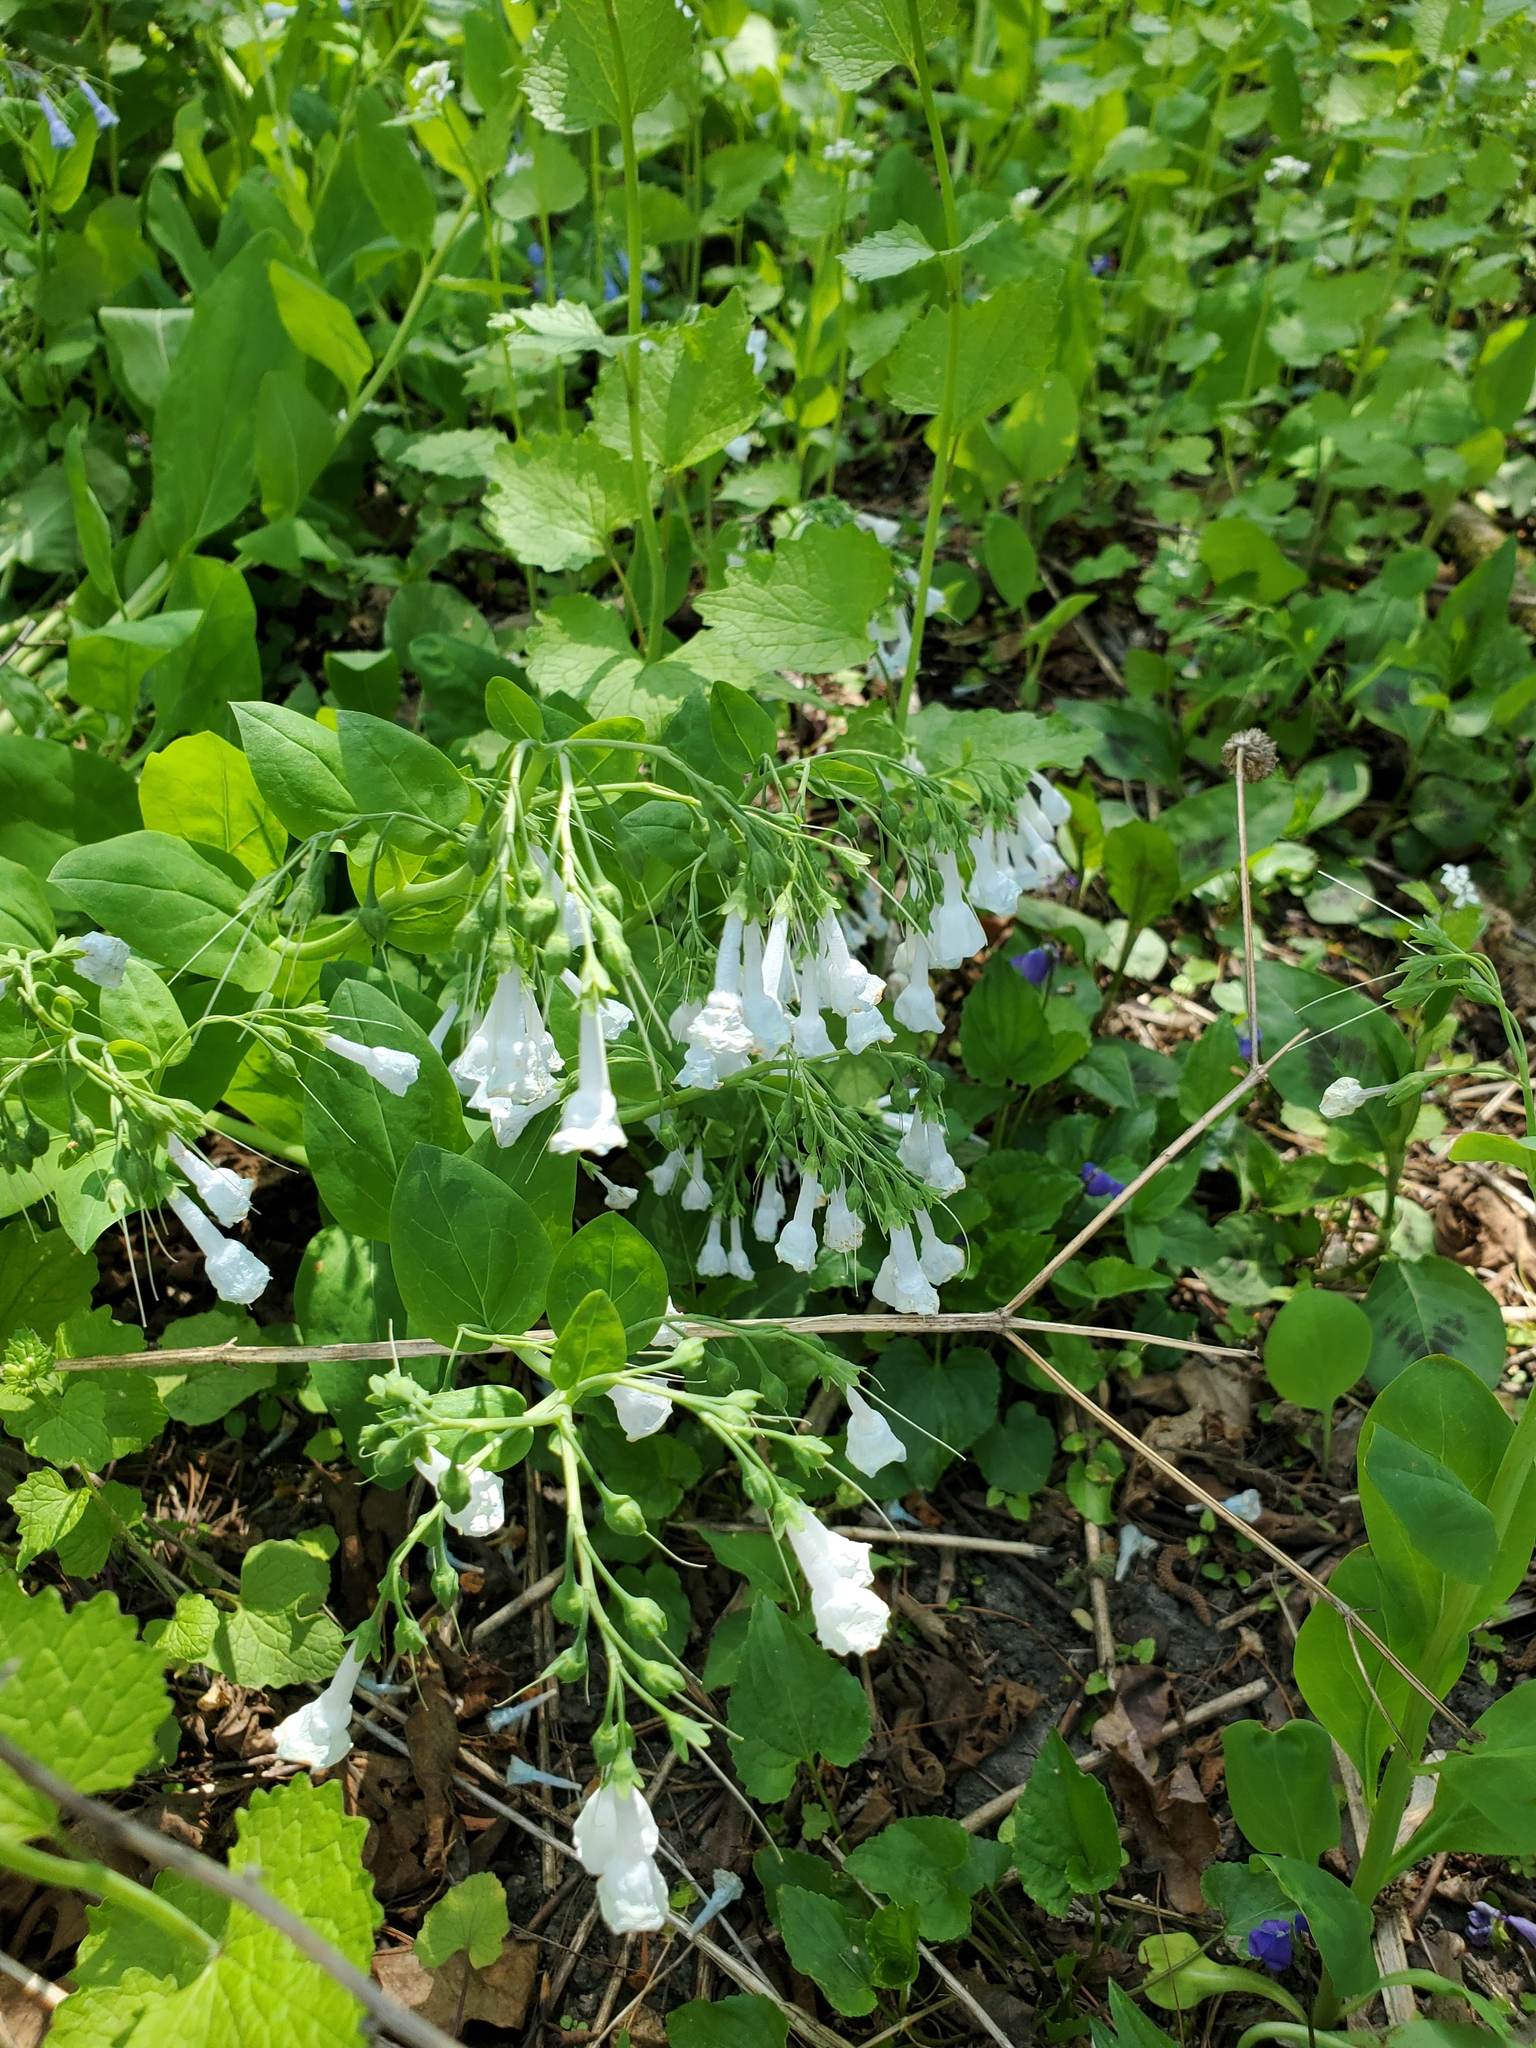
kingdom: Plantae
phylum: Tracheophyta
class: Magnoliopsida
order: Boraginales
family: Boraginaceae
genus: Mertensia
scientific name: Mertensia virginica
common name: Virginia bluebells
